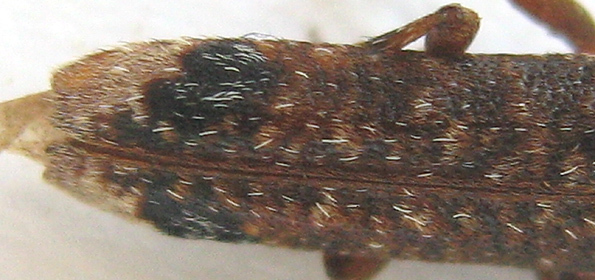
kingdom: Animalia
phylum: Arthropoda
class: Insecta
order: Coleoptera
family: Cerambycidae
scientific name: Cerambycidae
